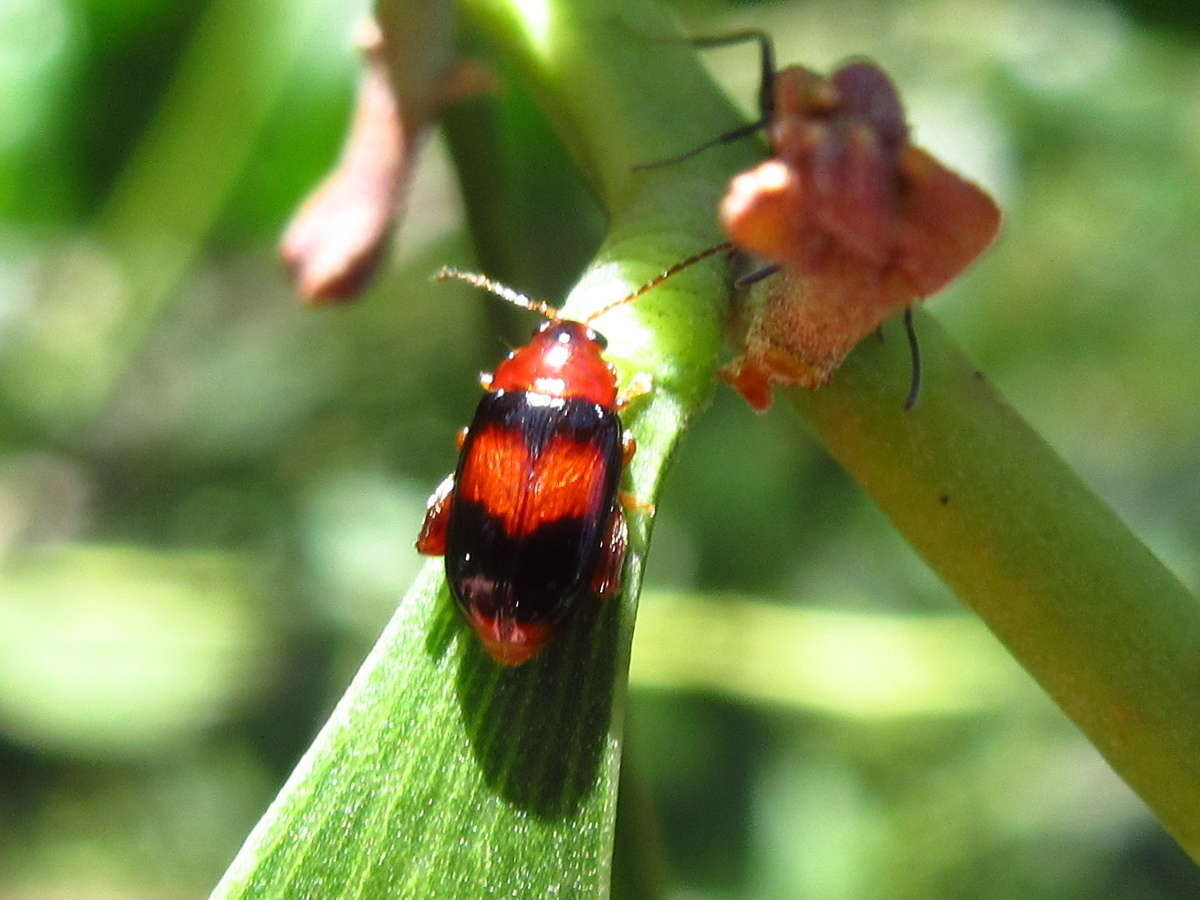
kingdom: Animalia
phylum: Arthropoda
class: Insecta
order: Coleoptera
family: Chrysomelidae
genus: Arsipoda
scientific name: Arsipoda montana
